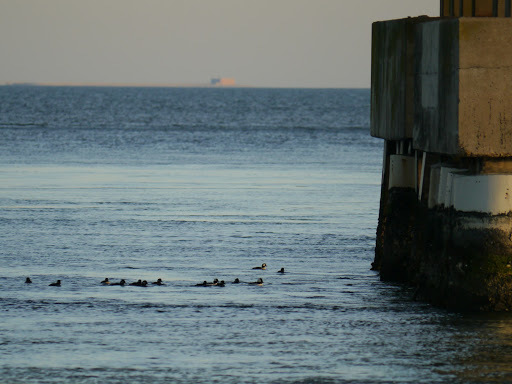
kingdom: Animalia
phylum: Chordata
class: Aves
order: Anseriformes
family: Anatidae
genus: Bucephala
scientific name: Bucephala albeola
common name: Bufflehead
